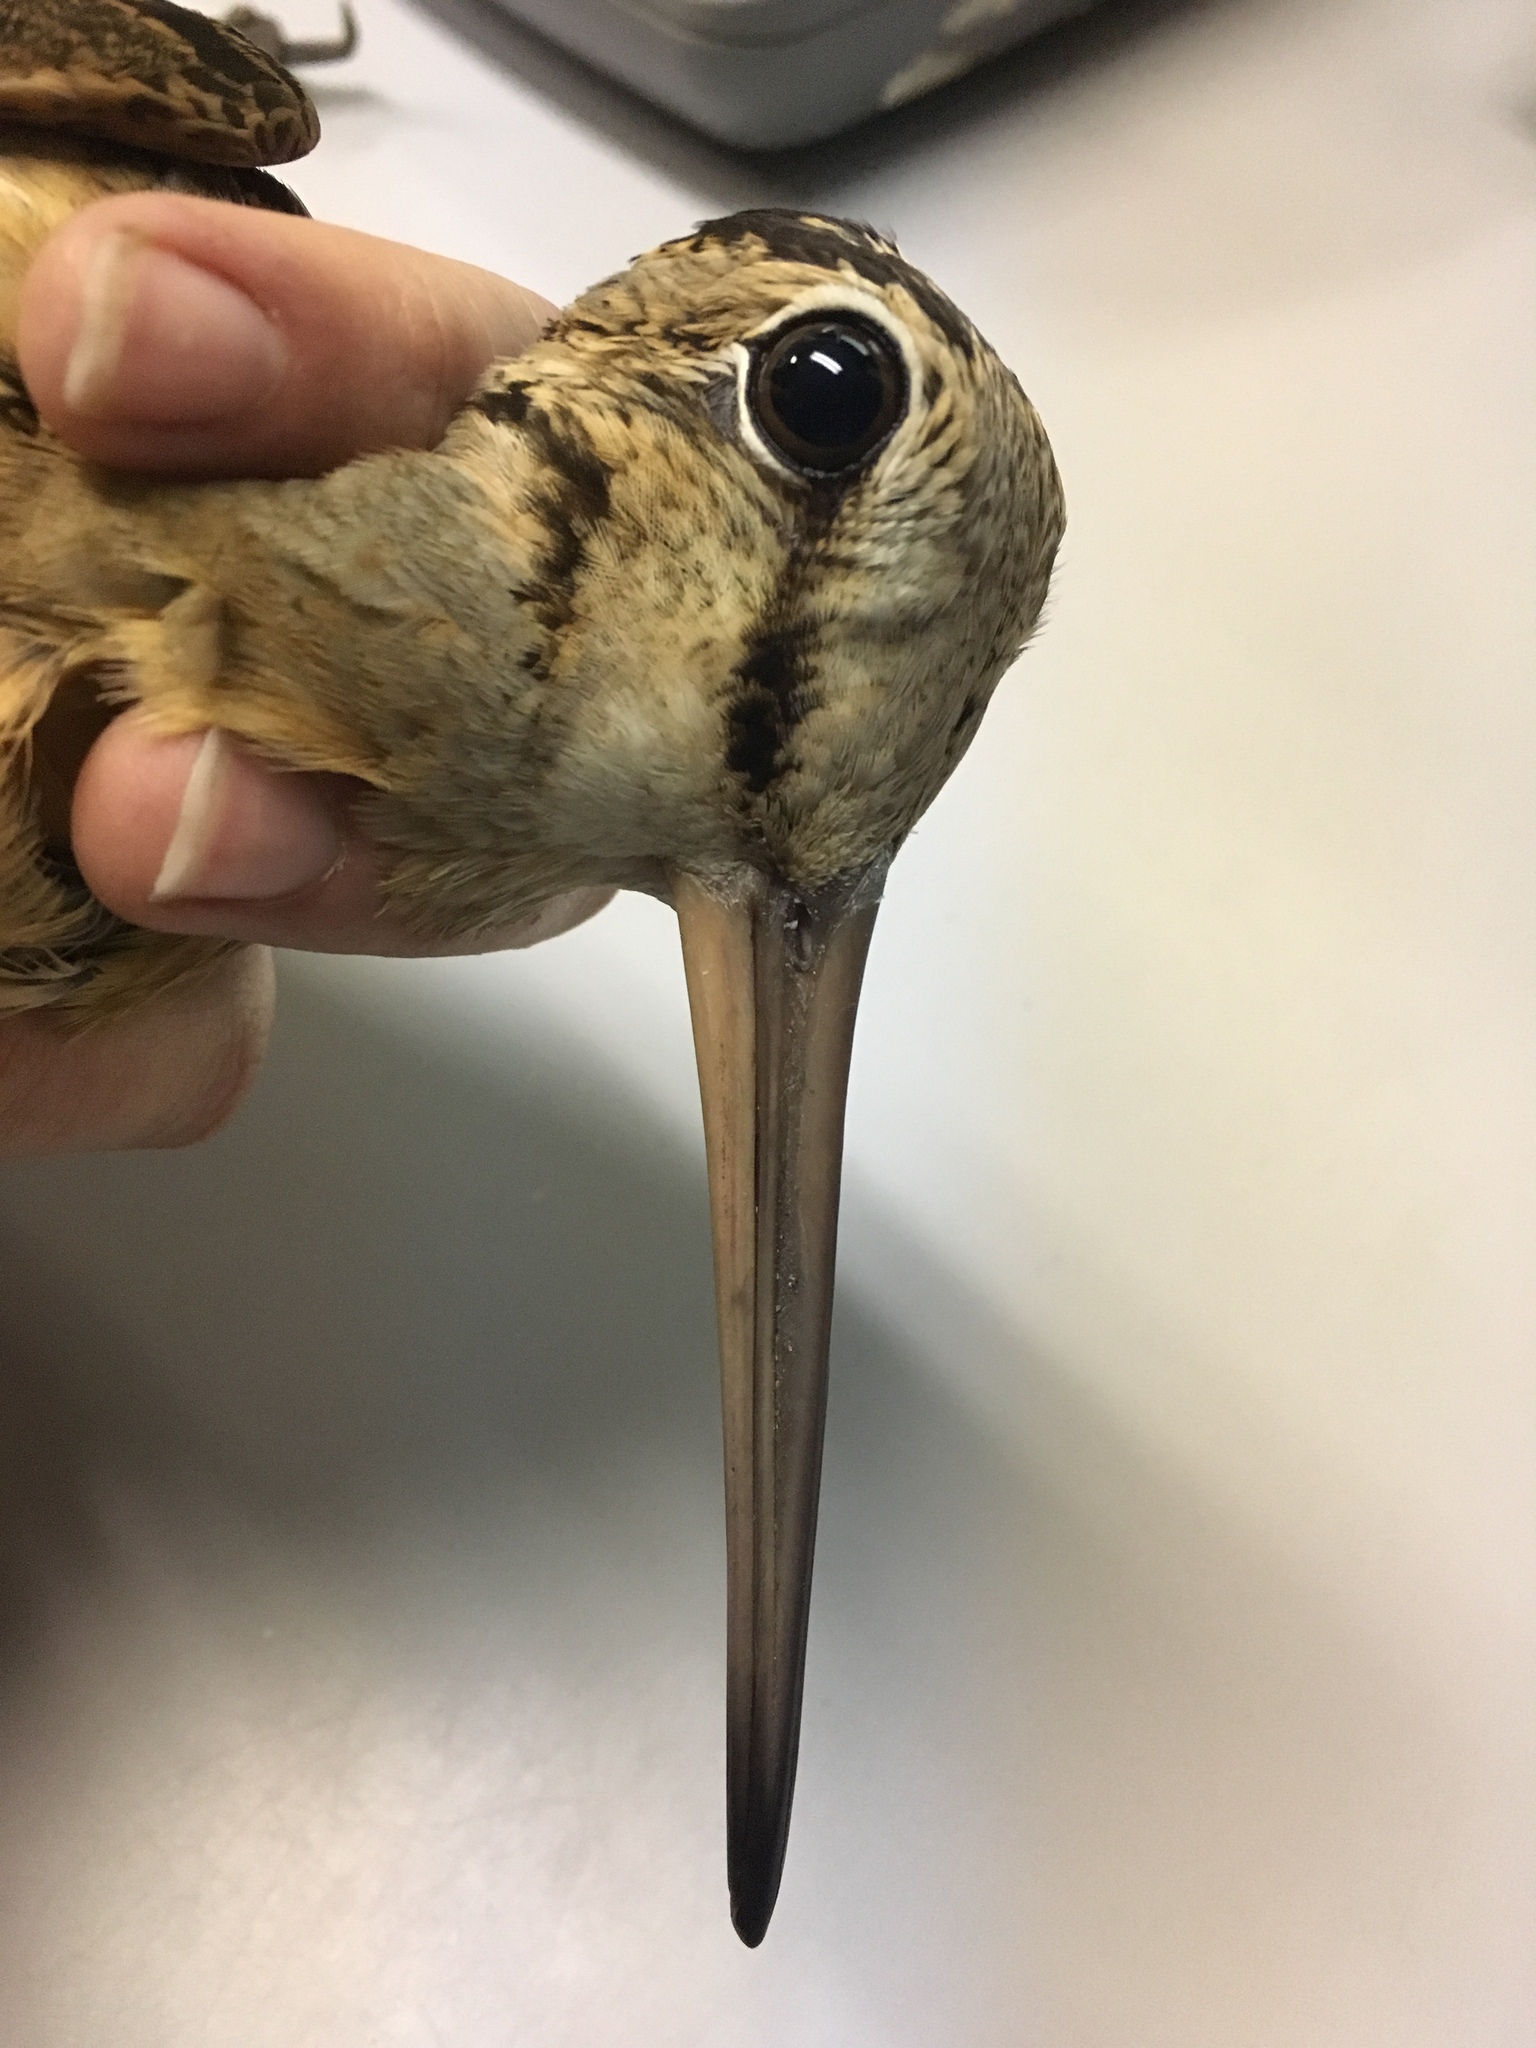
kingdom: Animalia
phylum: Chordata
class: Aves
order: Charadriiformes
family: Scolopacidae
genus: Scolopax
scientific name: Scolopax minor
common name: American woodcock
